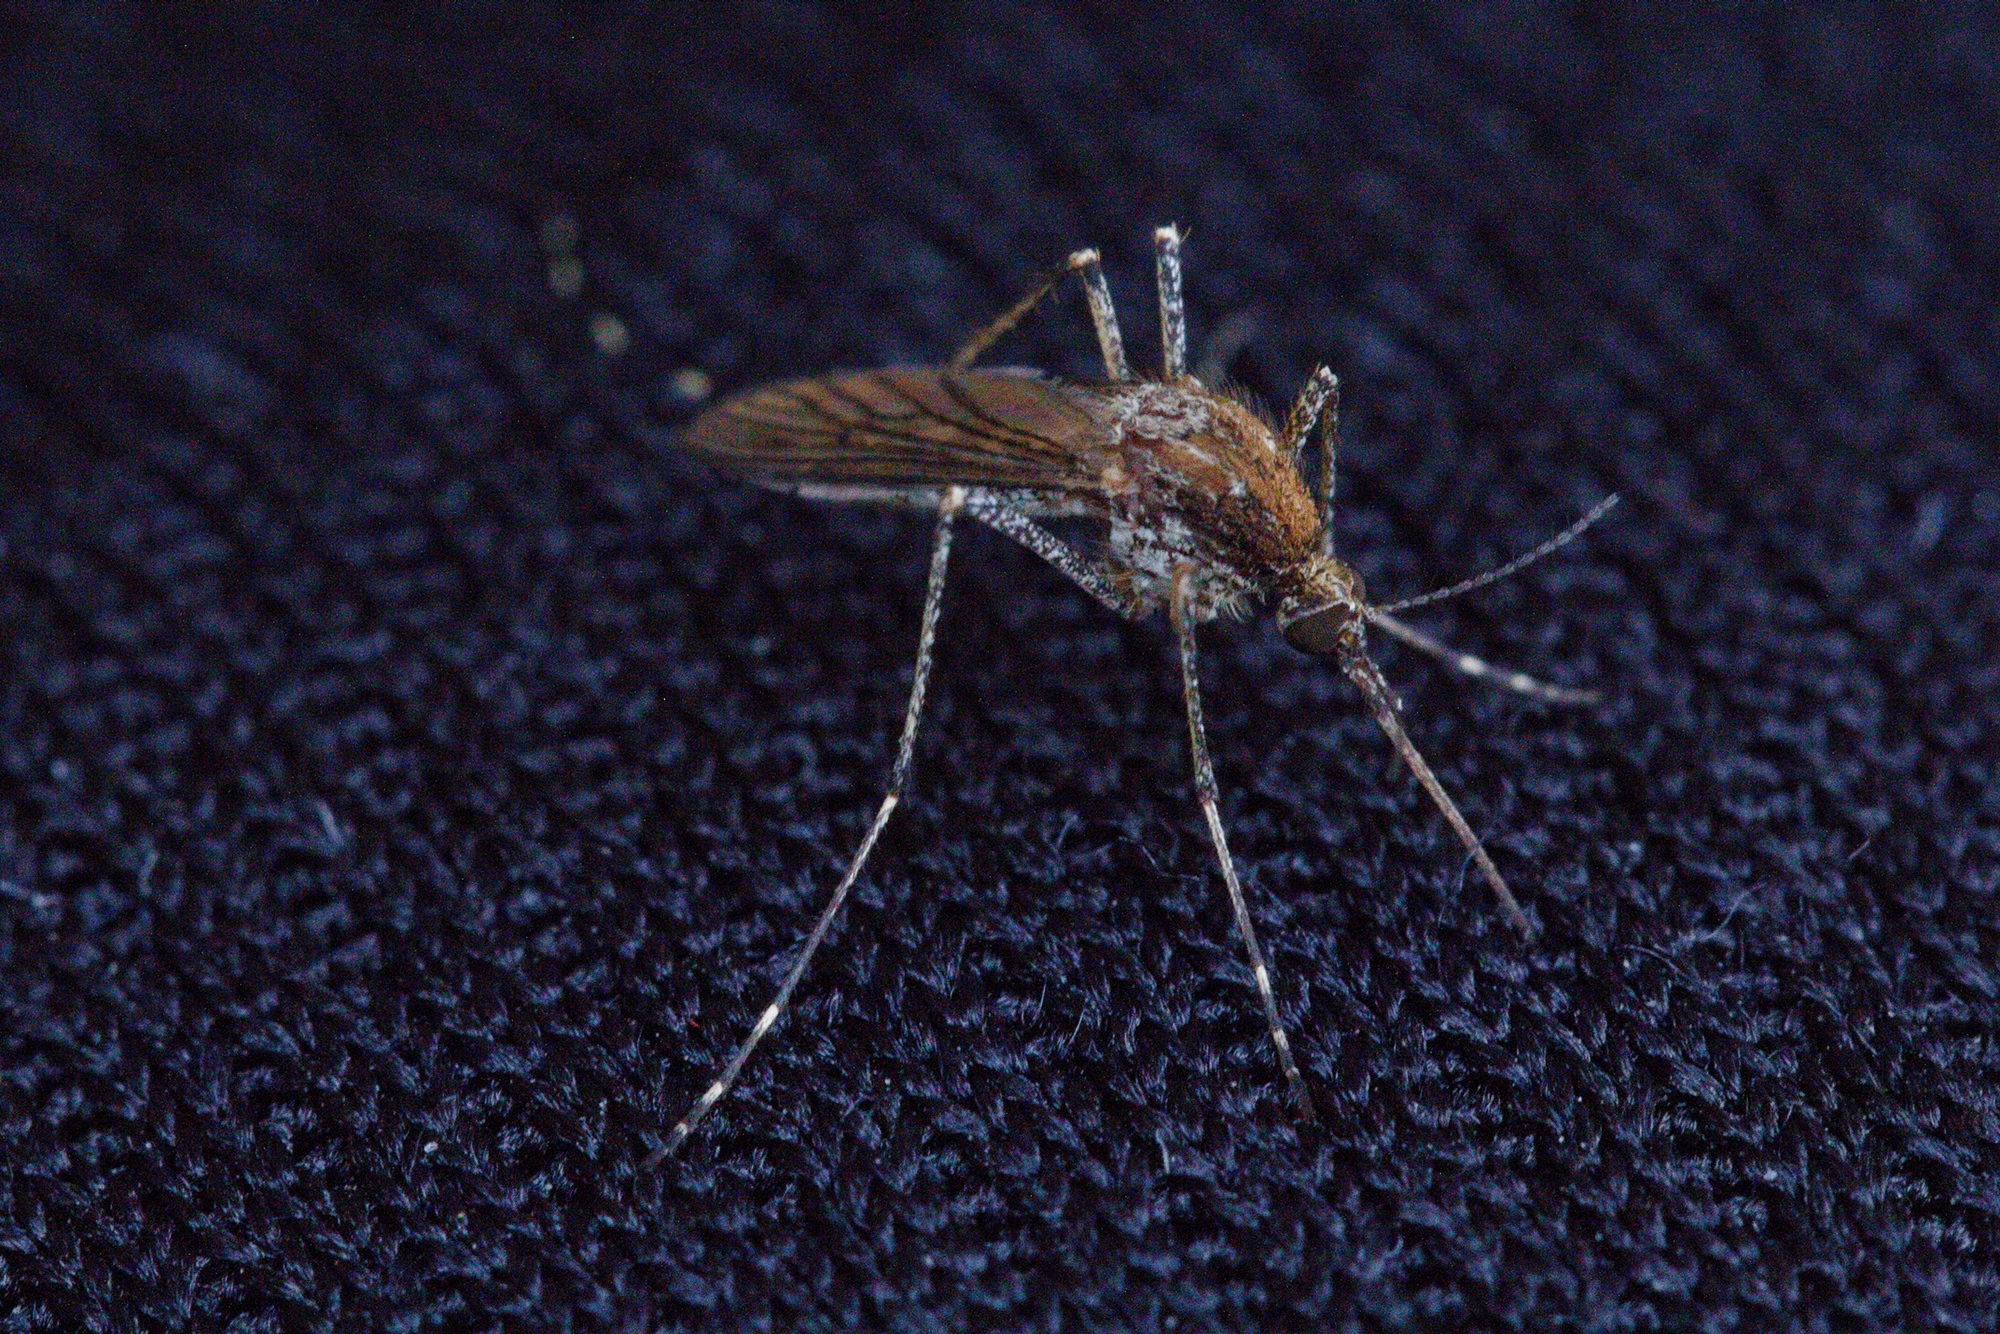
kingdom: Animalia
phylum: Arthropoda
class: Insecta
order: Diptera
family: Culicidae
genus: Aedes
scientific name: Aedes camptorhynchus
